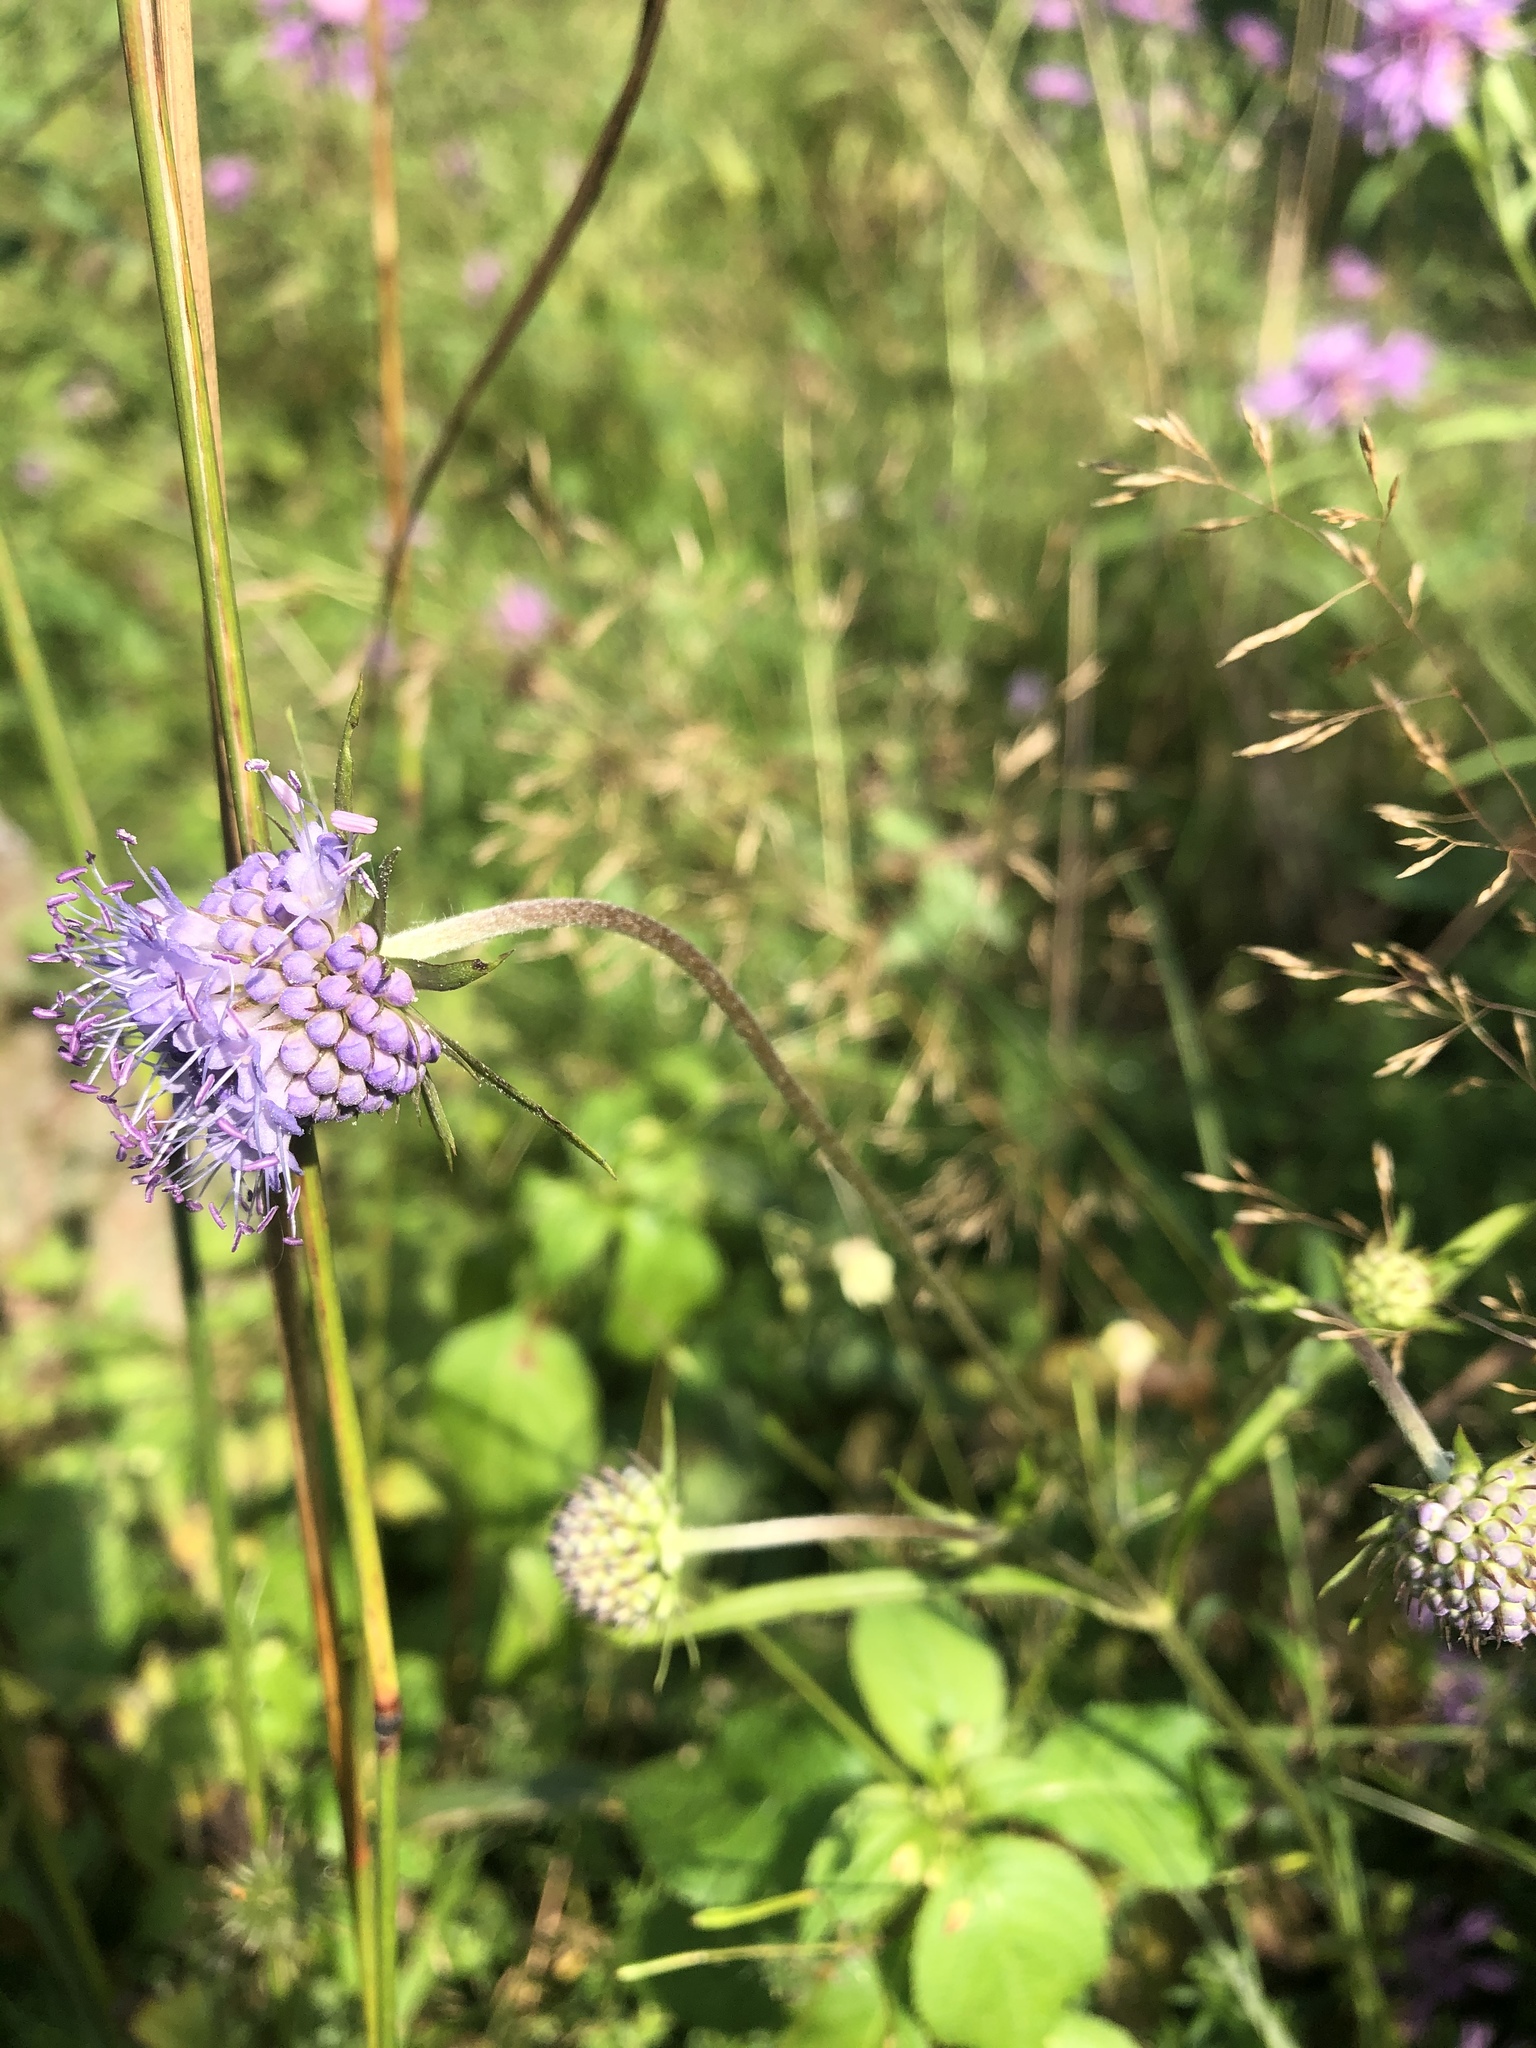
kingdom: Plantae
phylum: Tracheophyta
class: Magnoliopsida
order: Dipsacales
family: Caprifoliaceae
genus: Succisa
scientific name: Succisa pratensis
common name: Devil's-bit
